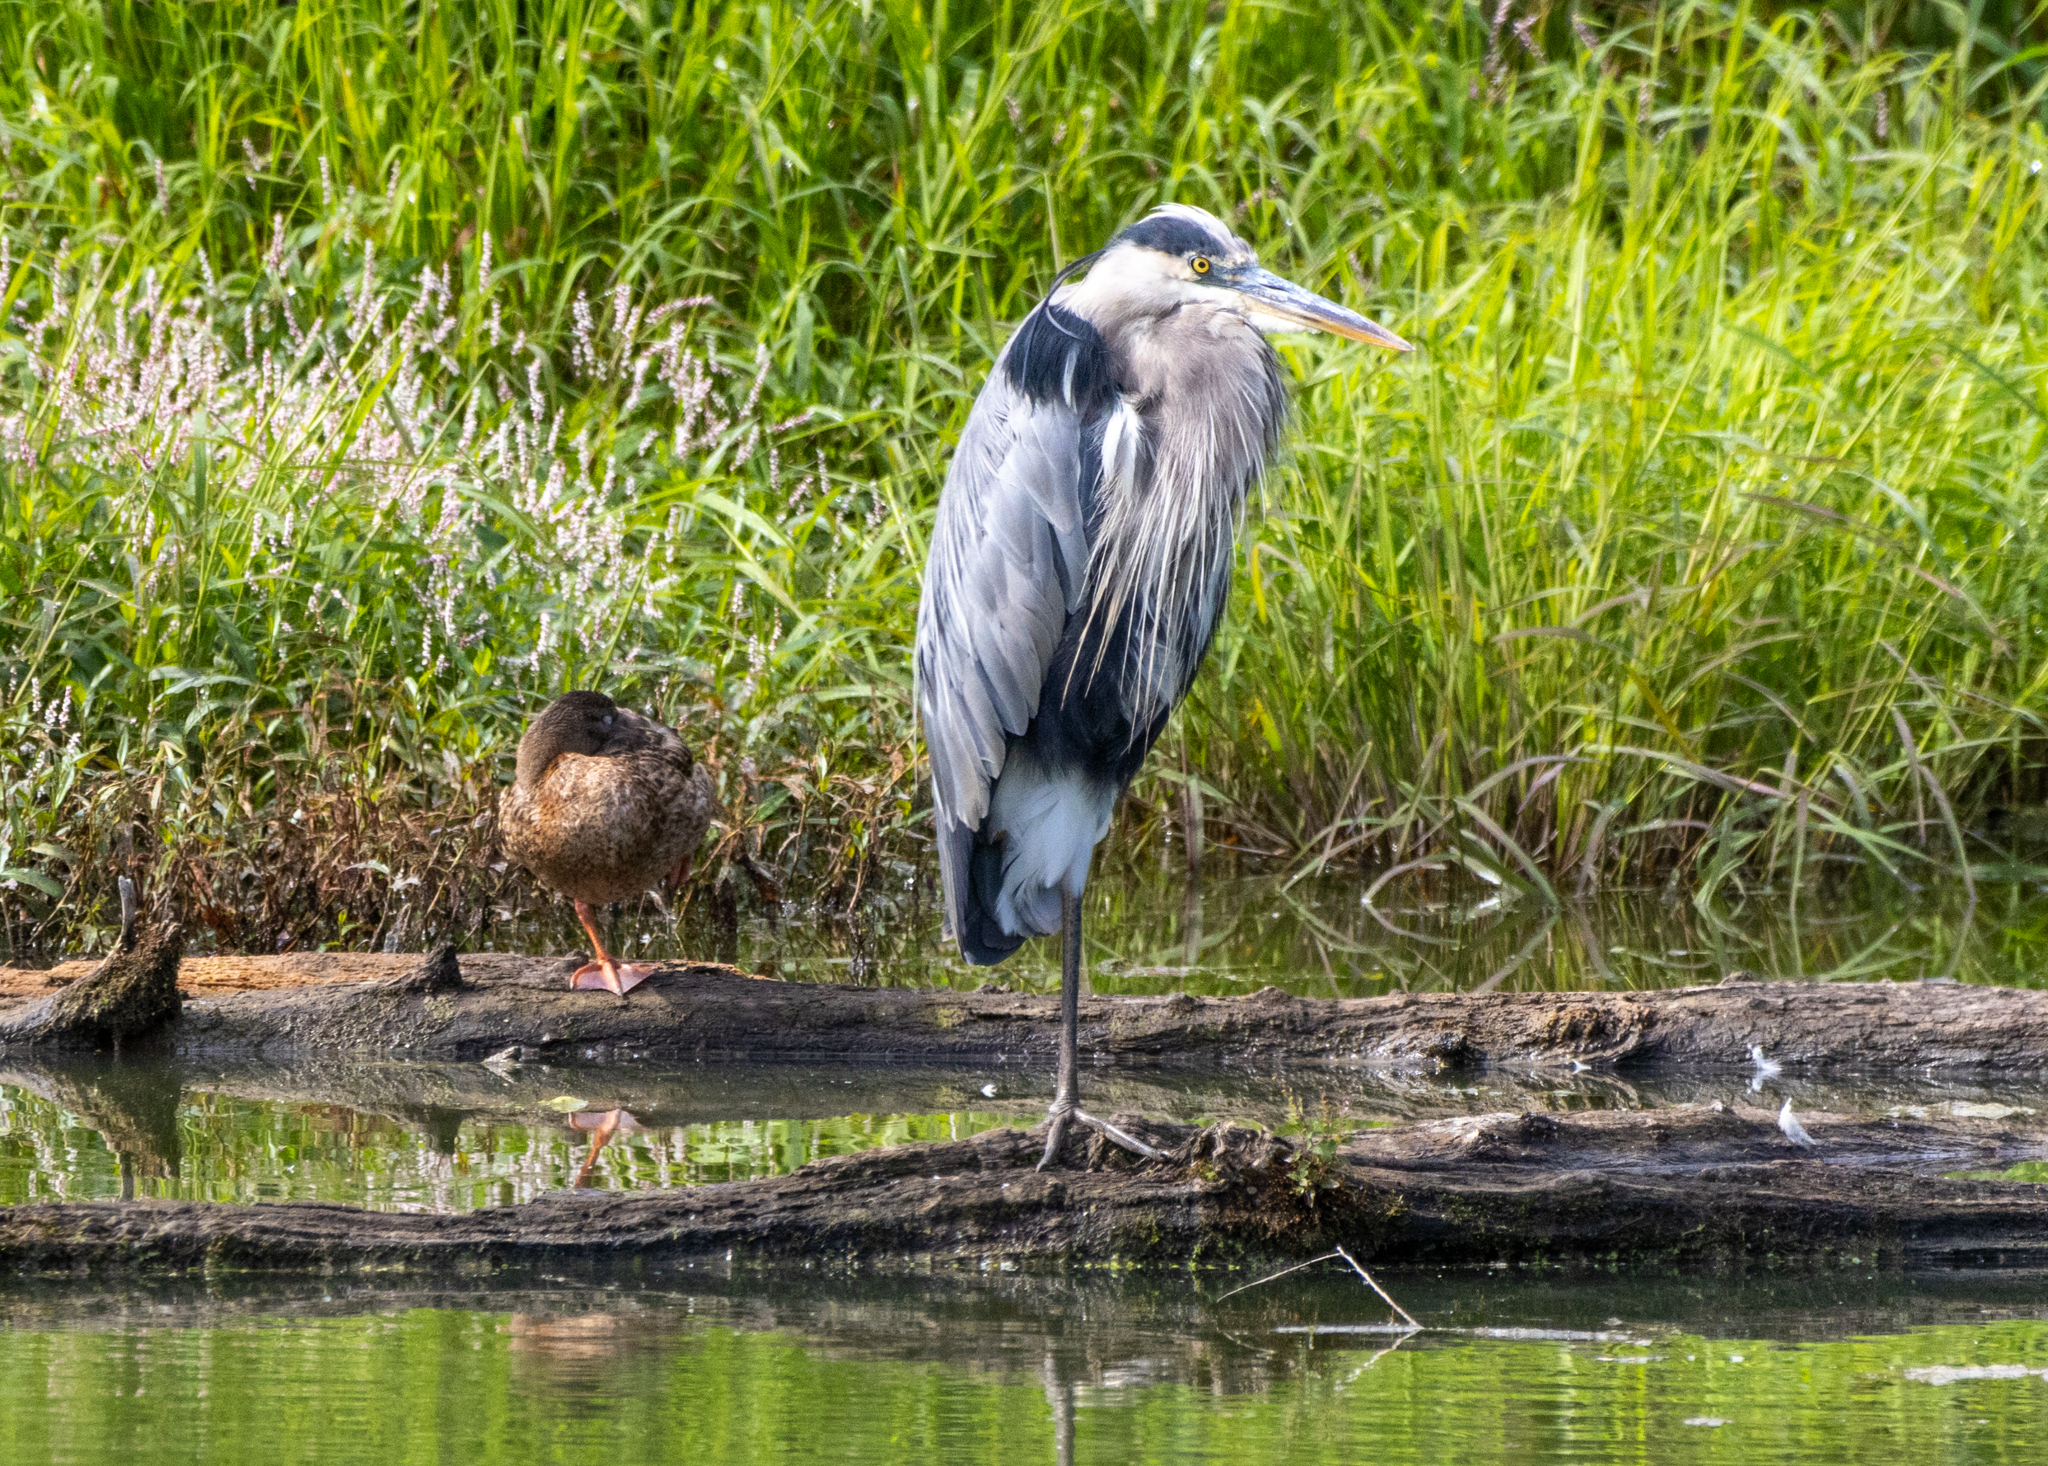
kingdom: Animalia
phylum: Chordata
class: Aves
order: Pelecaniformes
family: Ardeidae
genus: Ardea
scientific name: Ardea herodias
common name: Great blue heron
